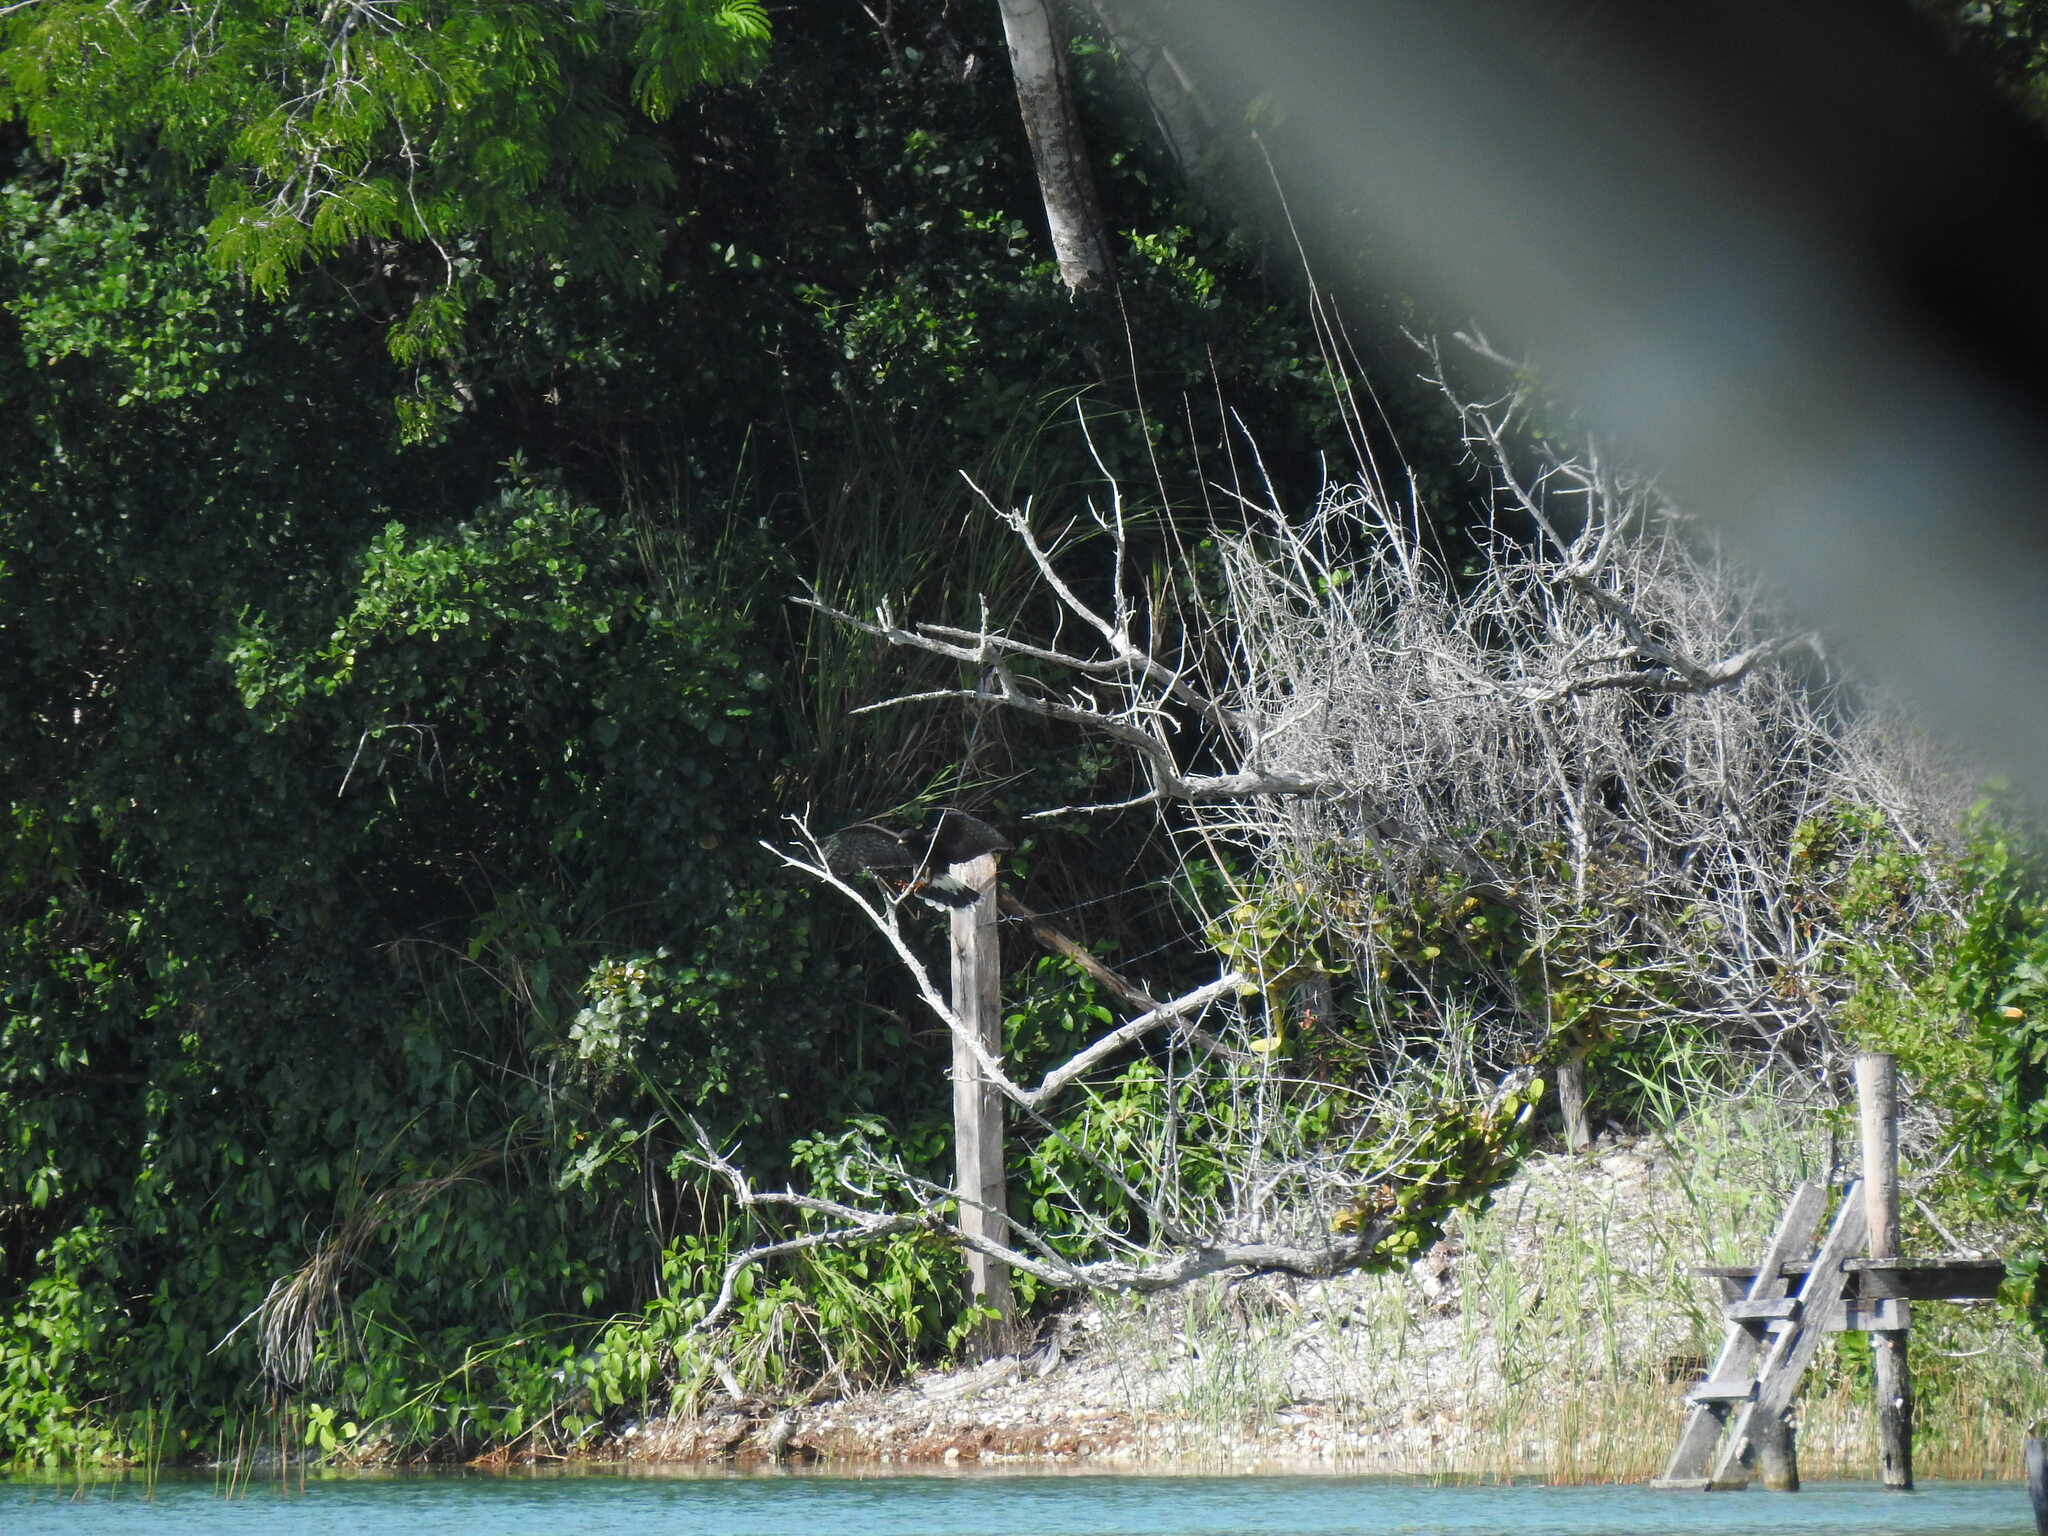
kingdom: Animalia
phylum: Chordata
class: Aves
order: Accipitriformes
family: Accipitridae
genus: Rostrhamus
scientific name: Rostrhamus sociabilis
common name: Snail kite
